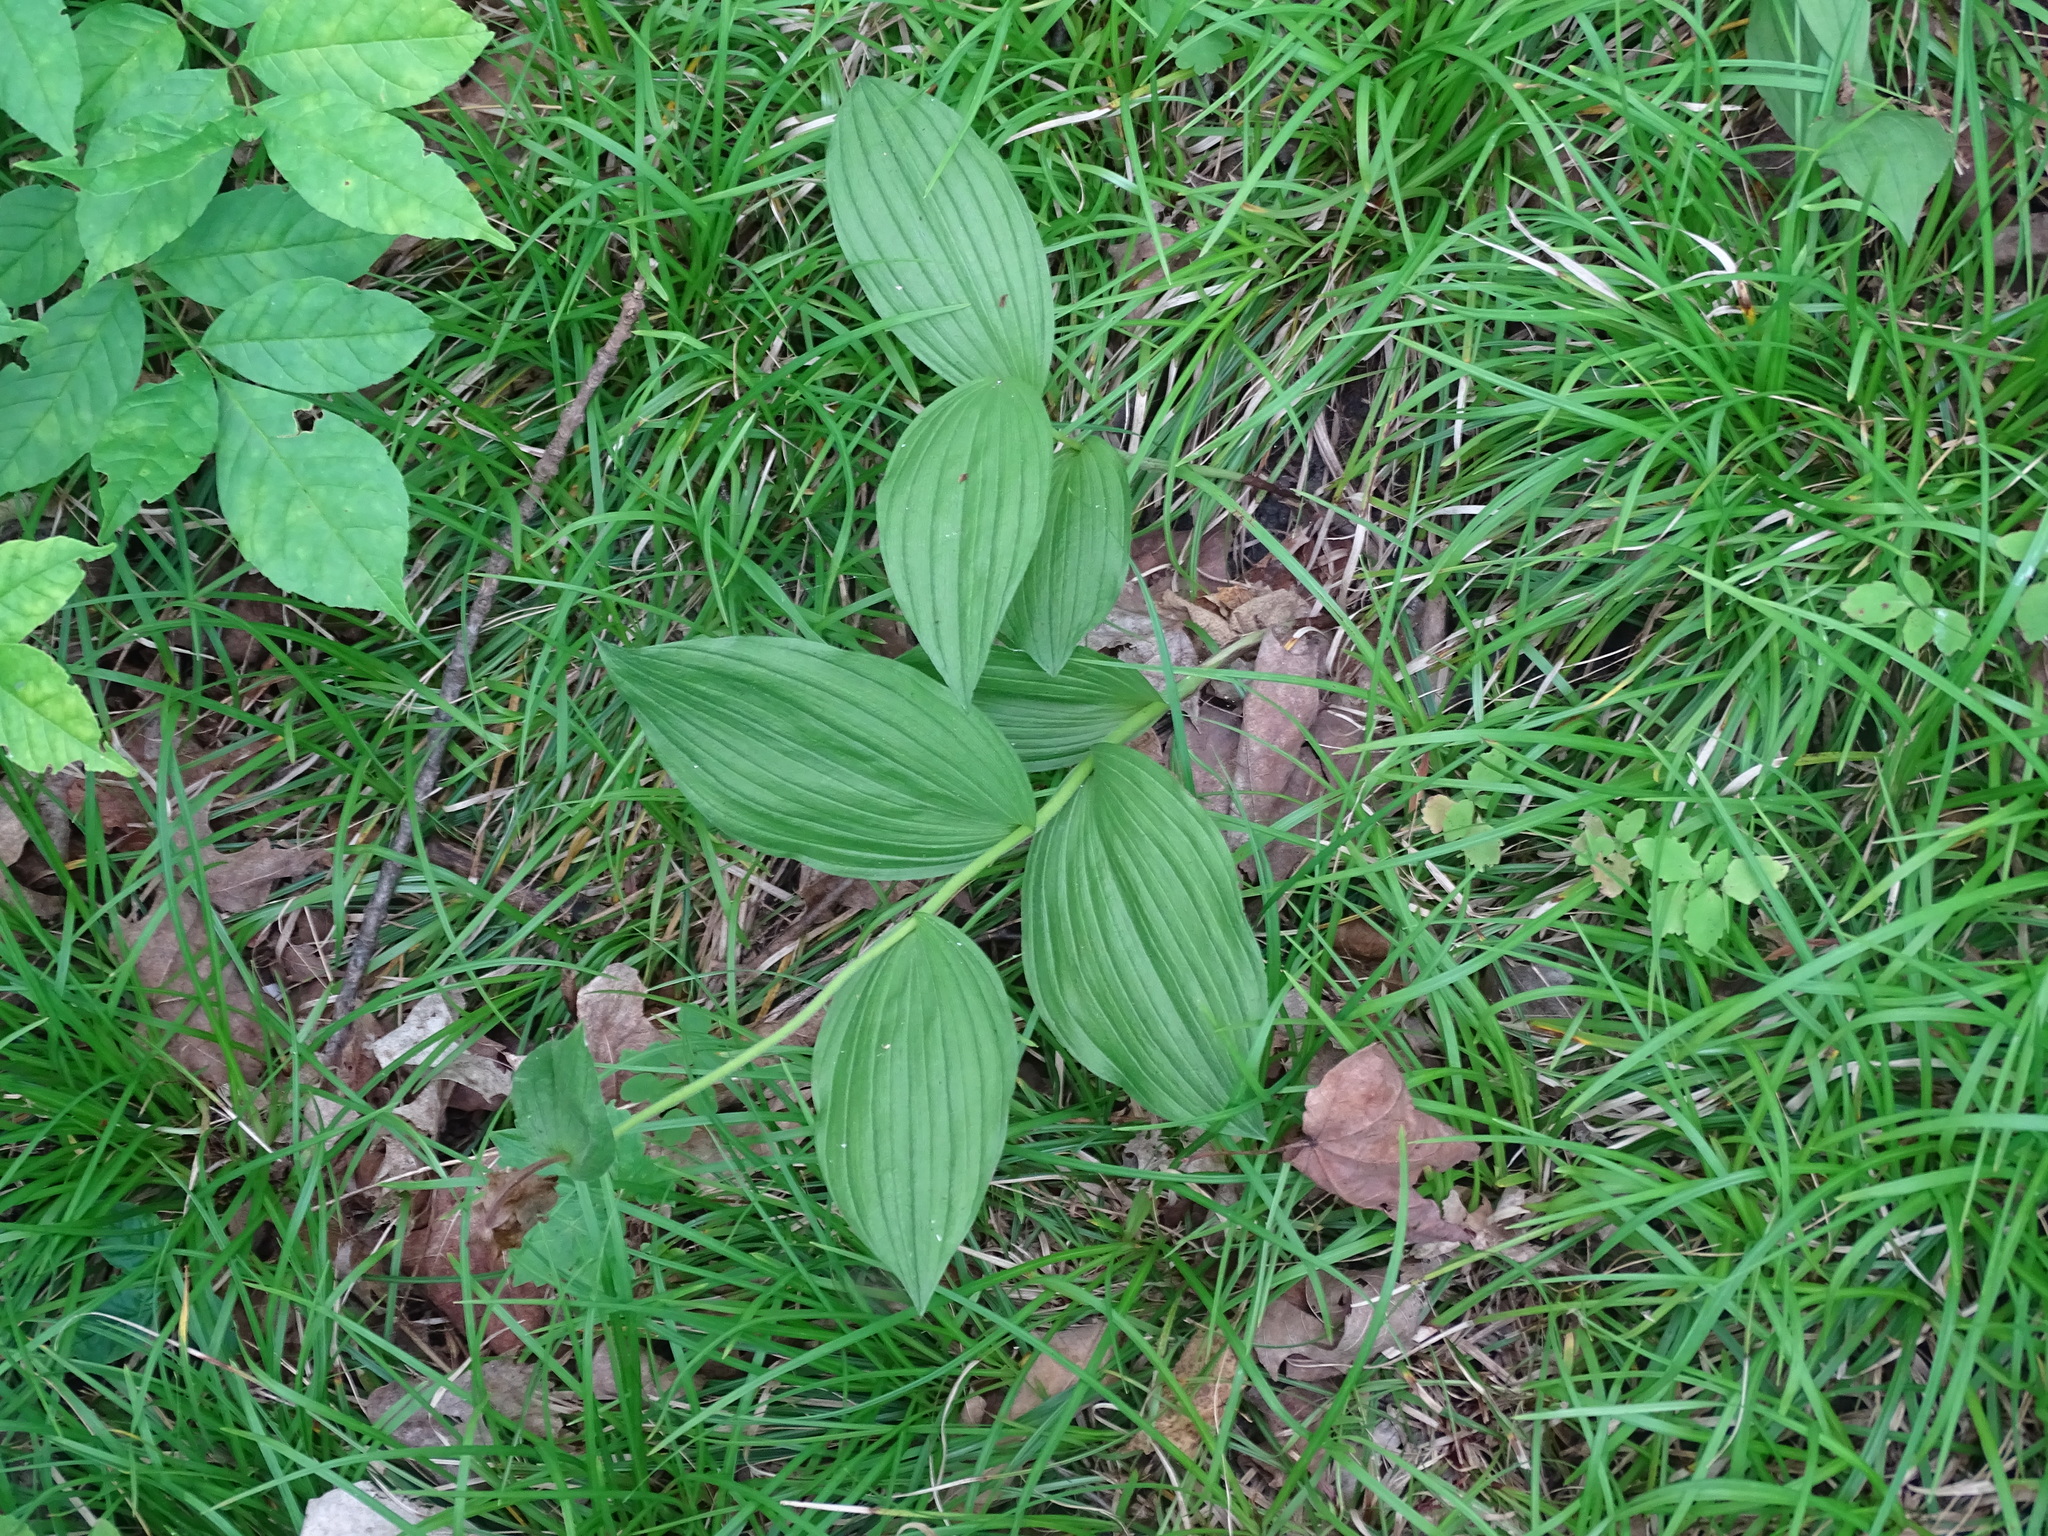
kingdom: Plantae
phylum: Tracheophyta
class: Liliopsida
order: Asparagales
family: Orchidaceae
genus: Cypripedium
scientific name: Cypripedium parviflorum
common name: American yellow lady's-slipper
